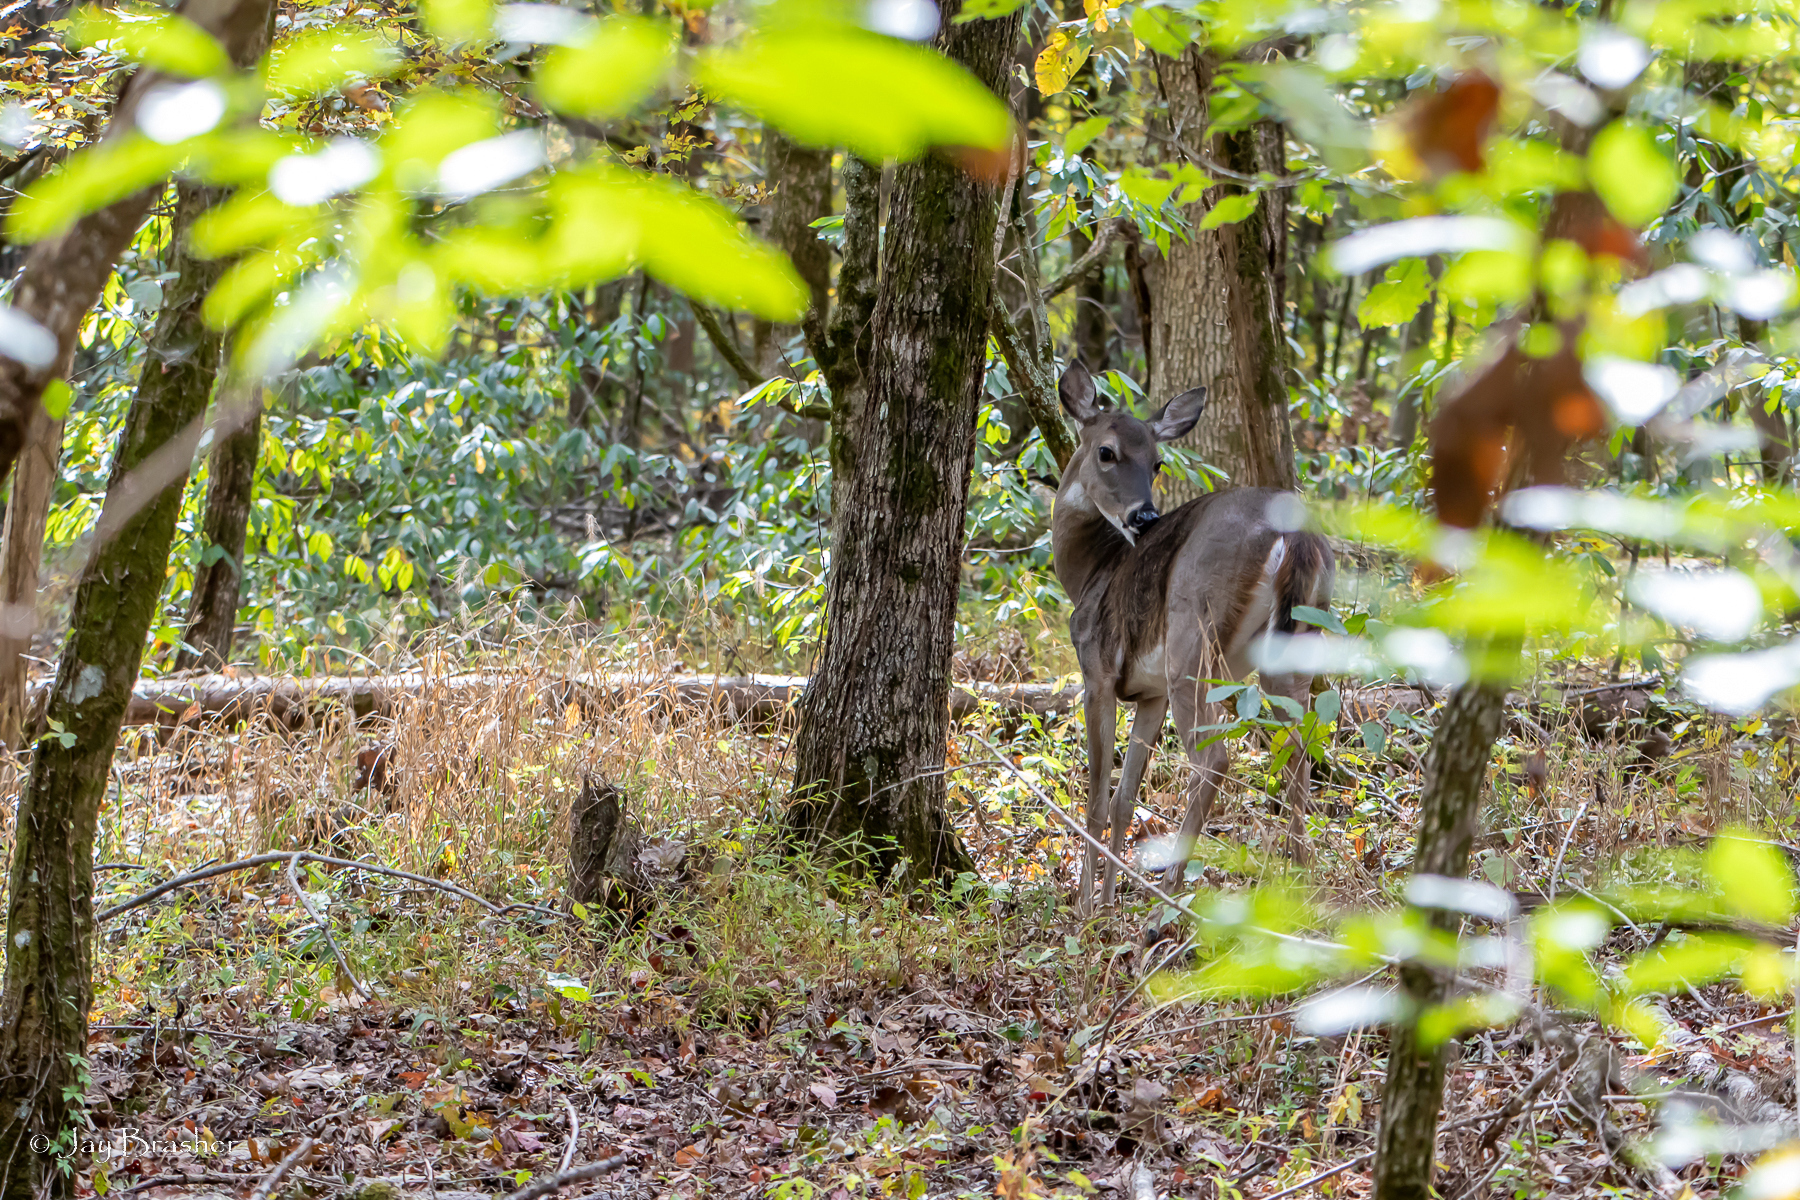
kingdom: Animalia
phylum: Chordata
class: Mammalia
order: Artiodactyla
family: Cervidae
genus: Odocoileus
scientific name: Odocoileus virginianus
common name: White-tailed deer
